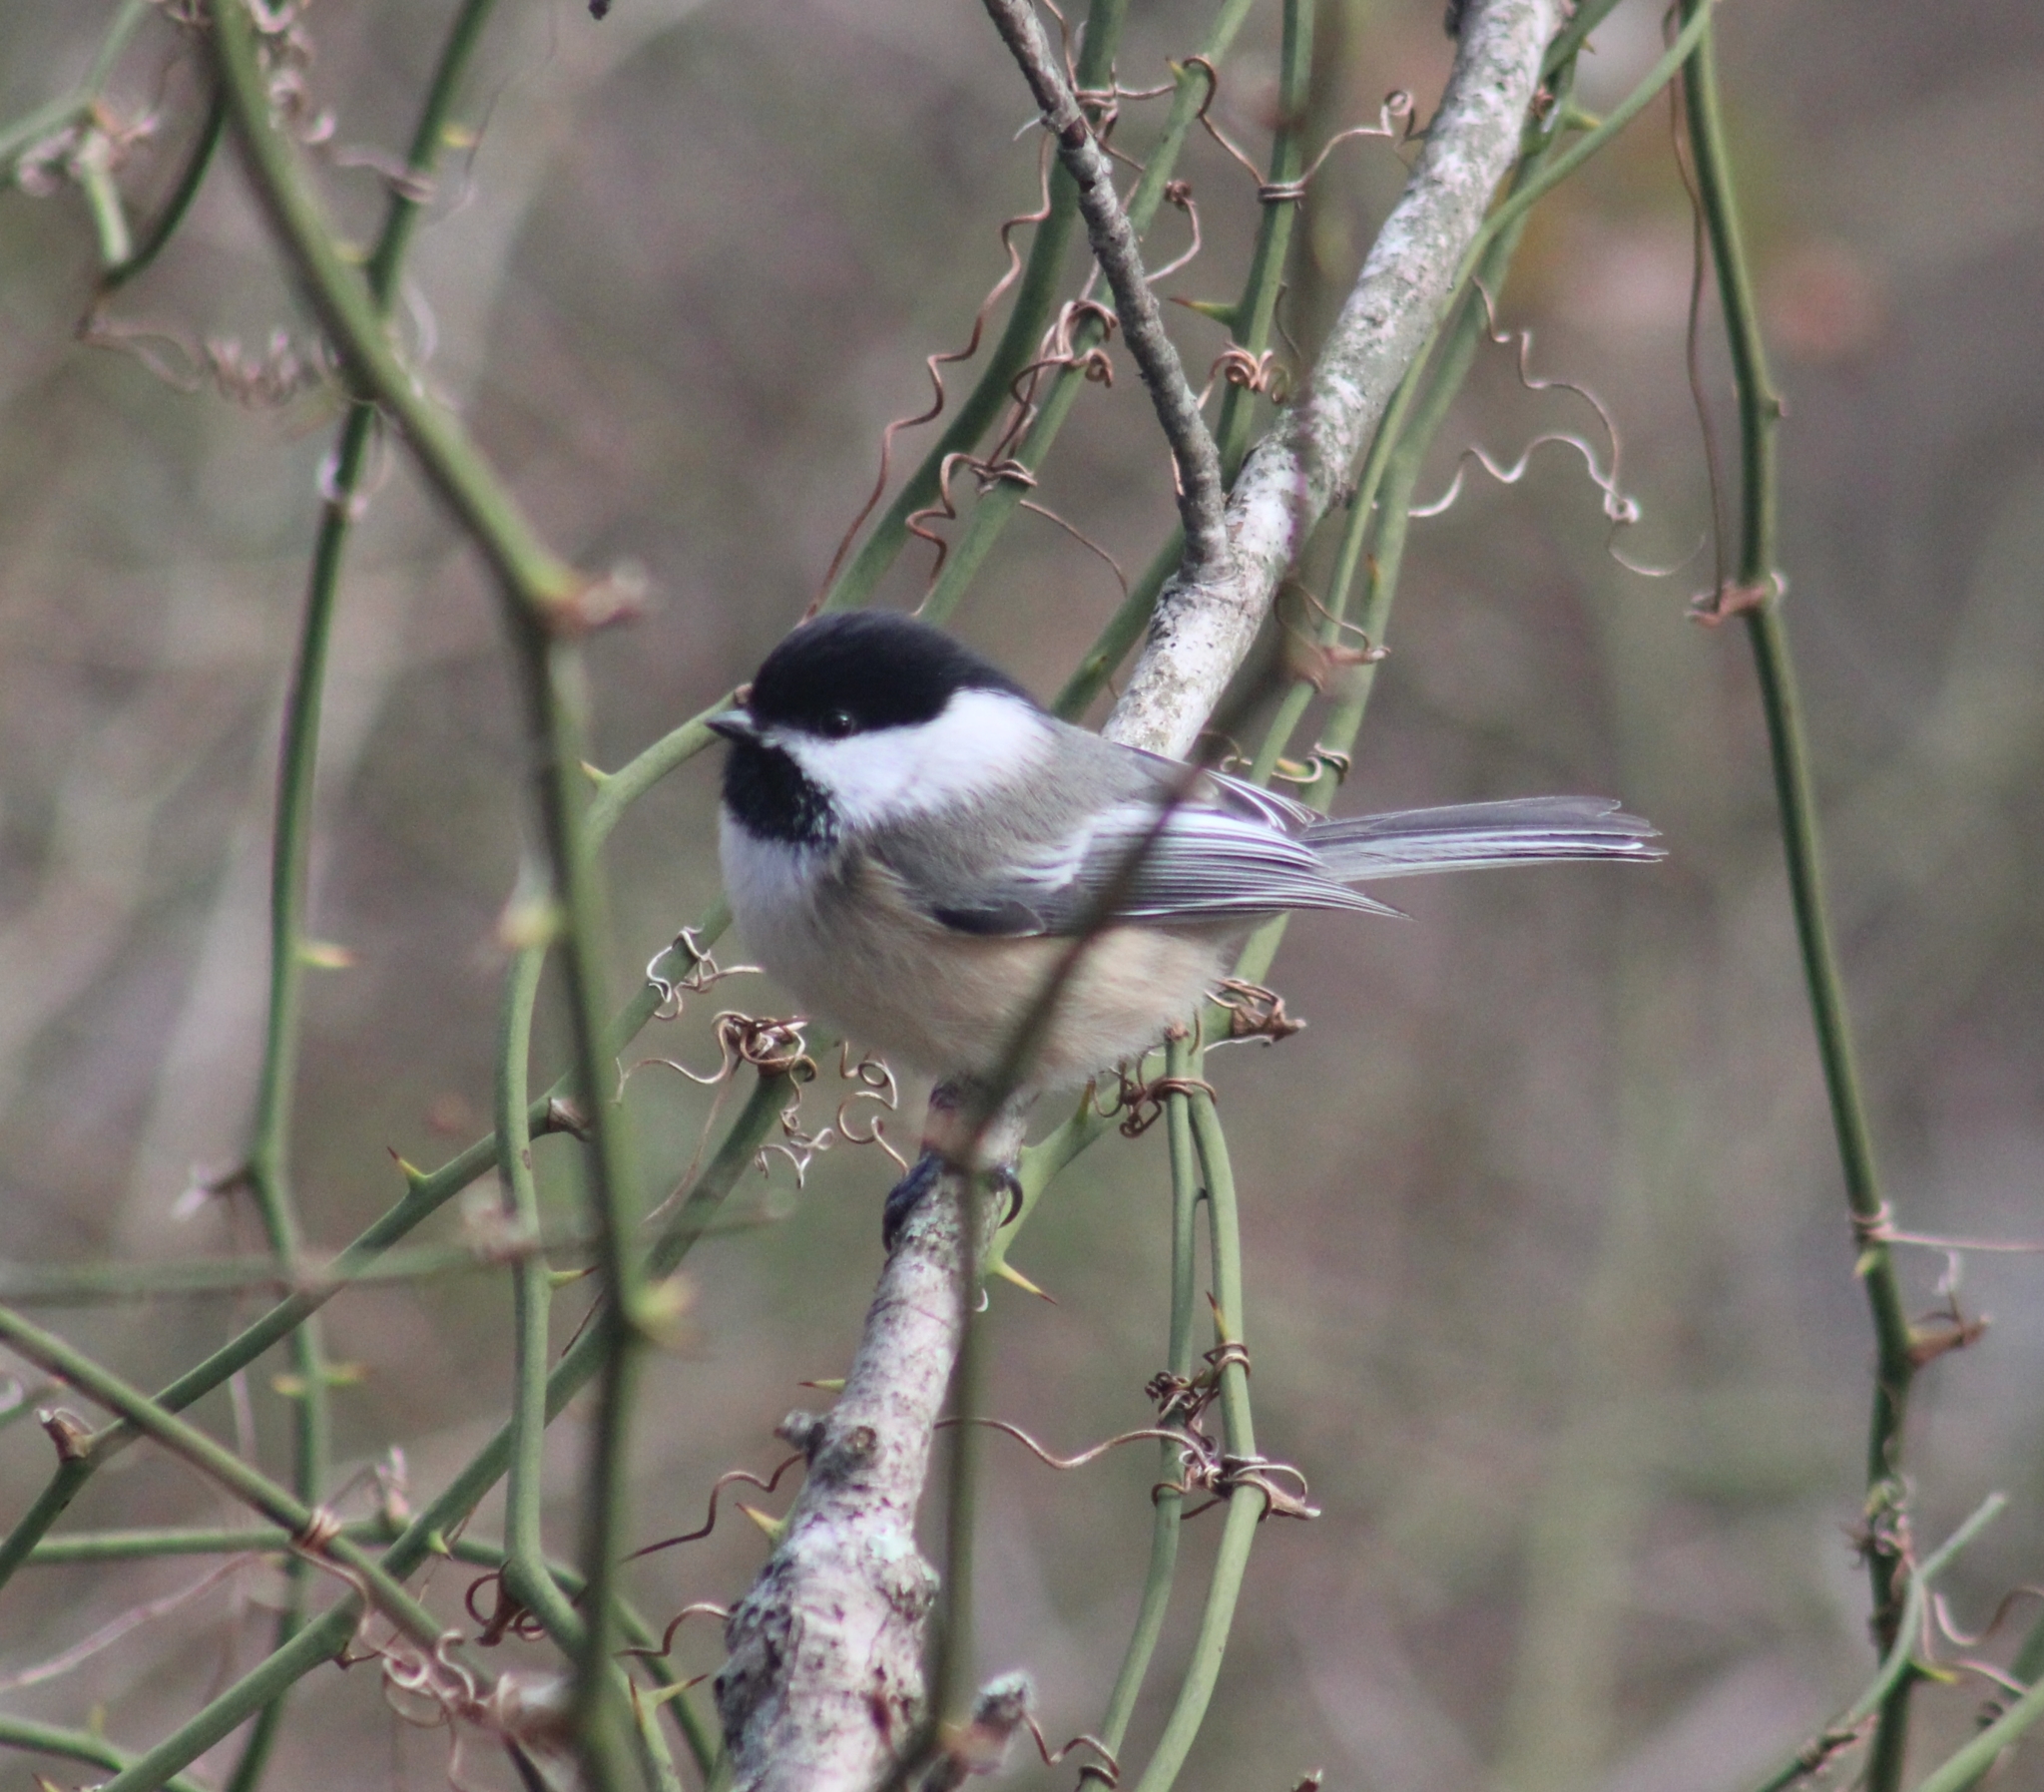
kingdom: Animalia
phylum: Chordata
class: Aves
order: Passeriformes
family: Paridae
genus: Poecile
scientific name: Poecile atricapillus
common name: Black-capped chickadee
